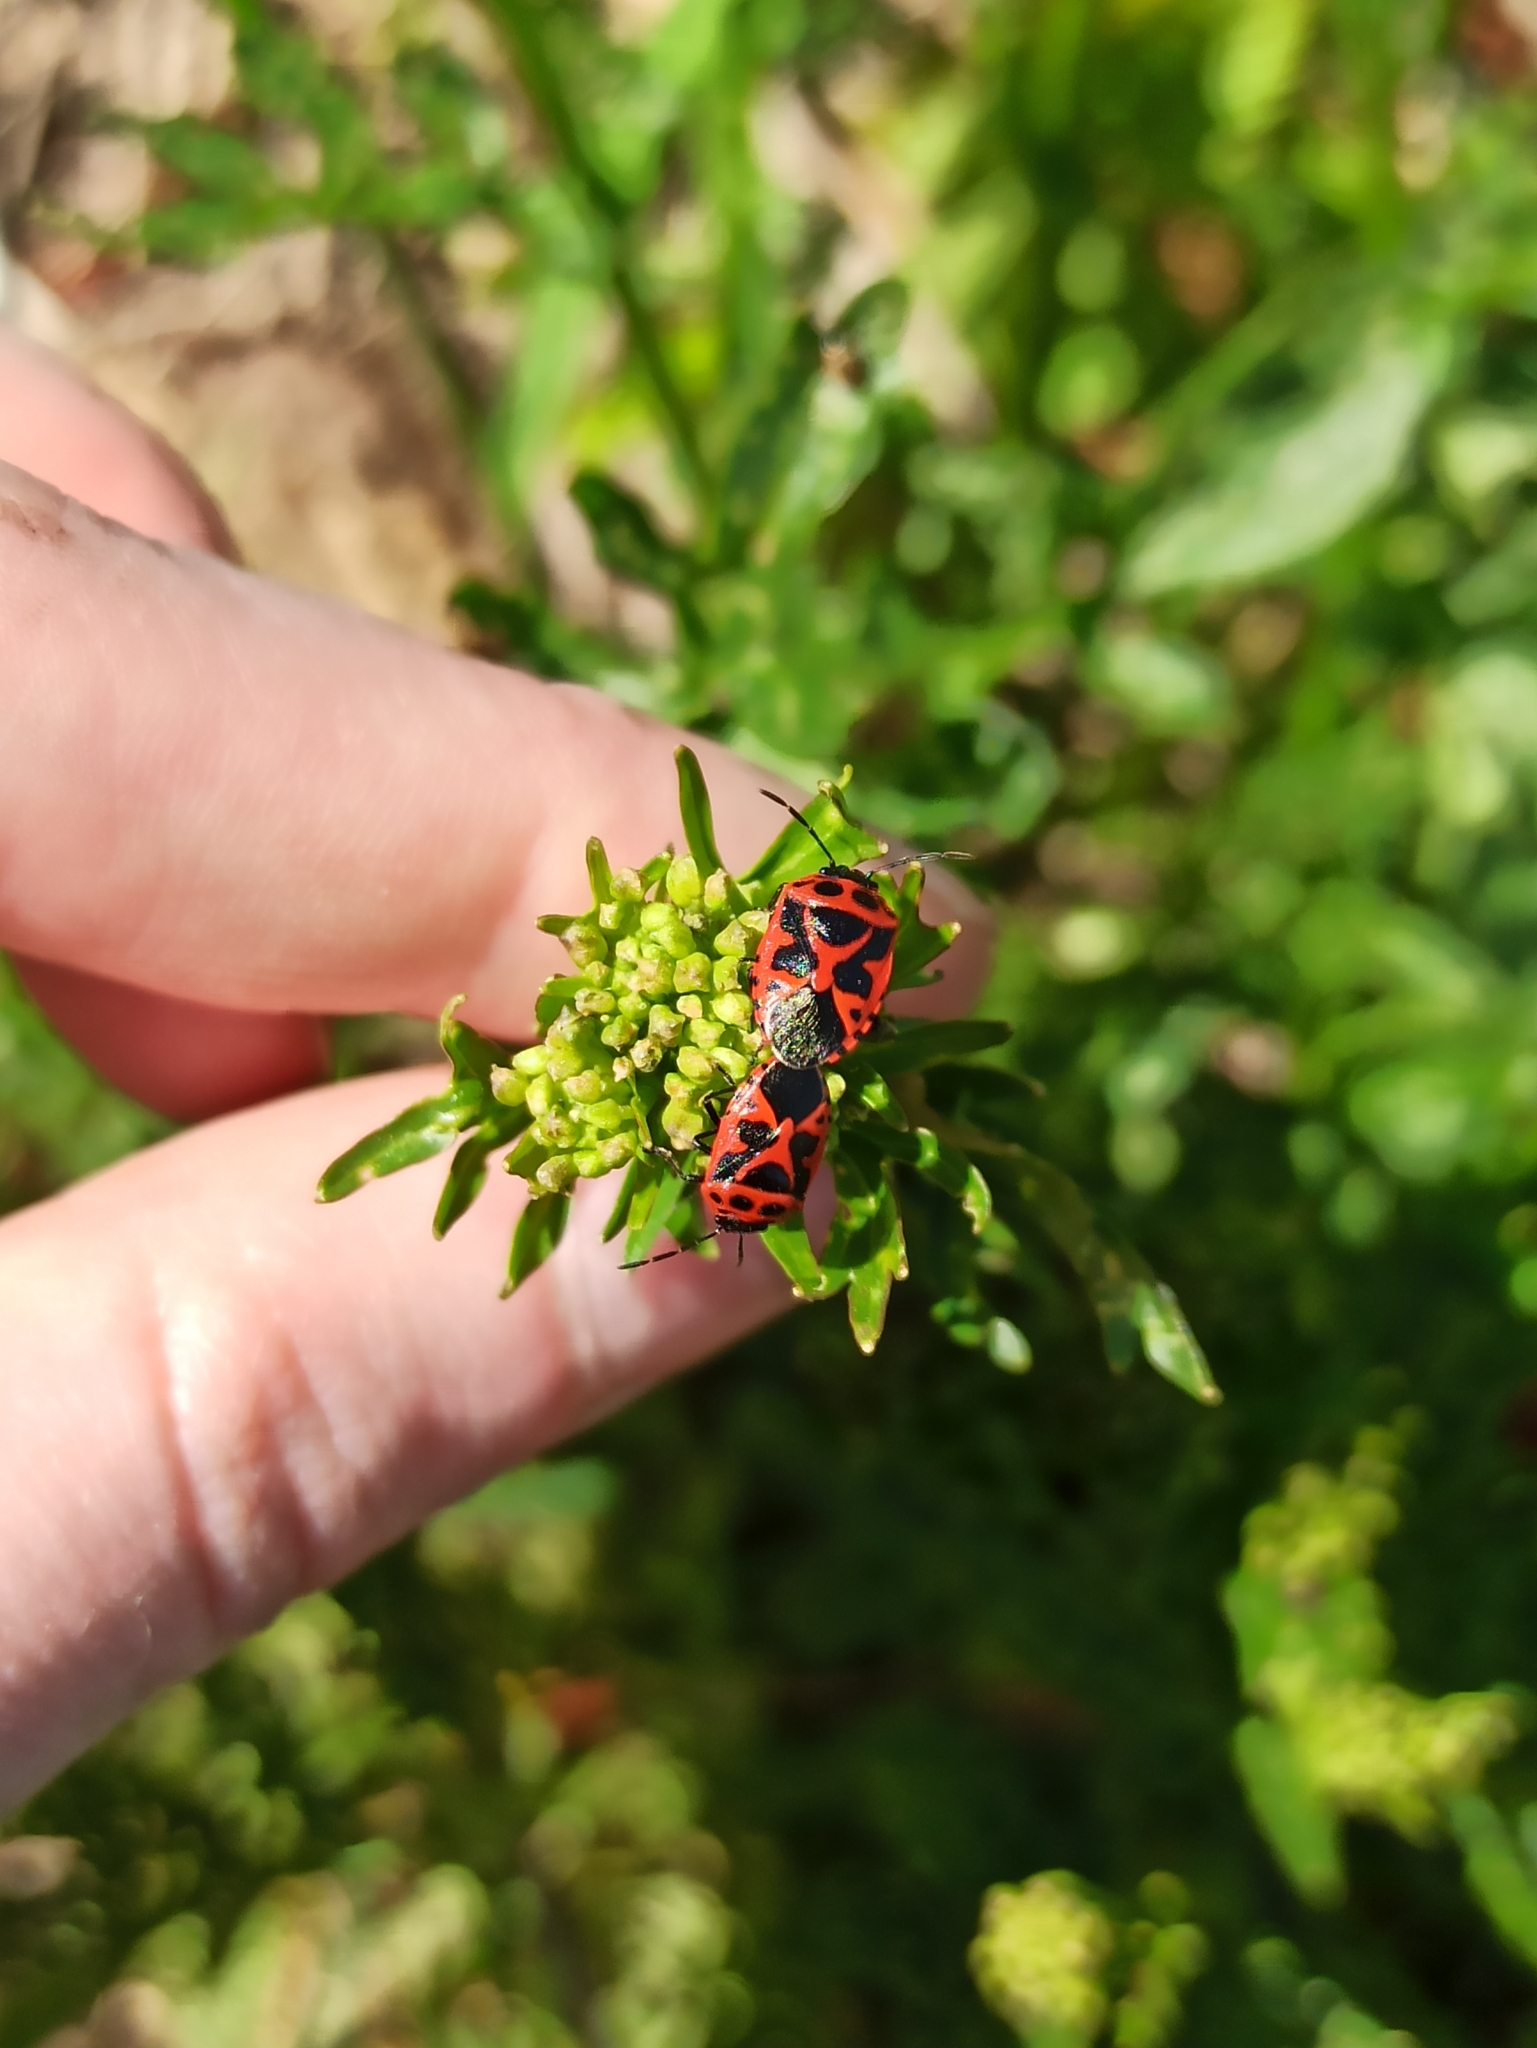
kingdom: Animalia
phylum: Arthropoda
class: Insecta
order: Hemiptera
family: Pentatomidae
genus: Eurydema
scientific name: Eurydema dominulus
